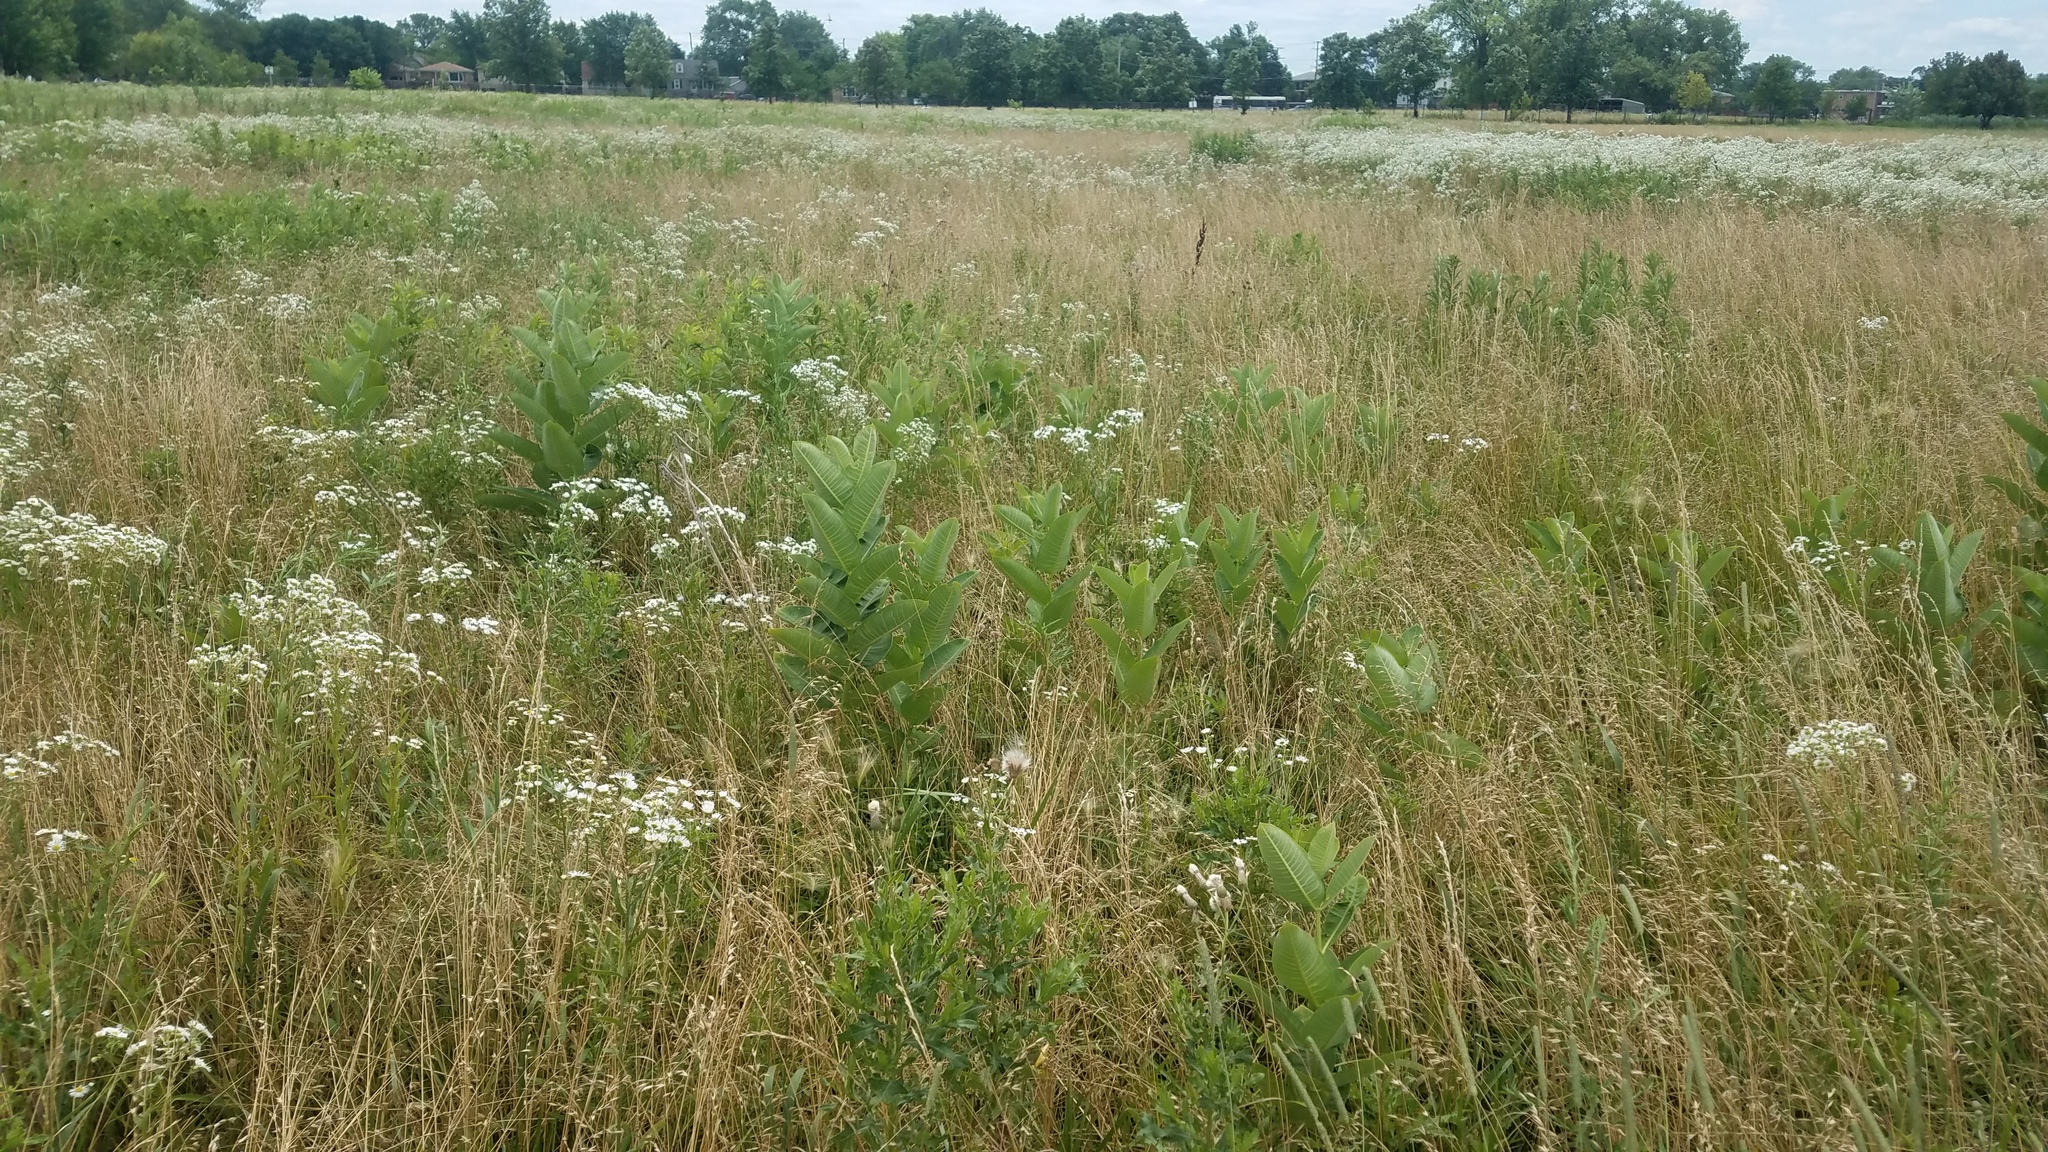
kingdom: Plantae
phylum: Tracheophyta
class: Magnoliopsida
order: Gentianales
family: Apocynaceae
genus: Asclepias
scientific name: Asclepias syriaca
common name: Common milkweed
